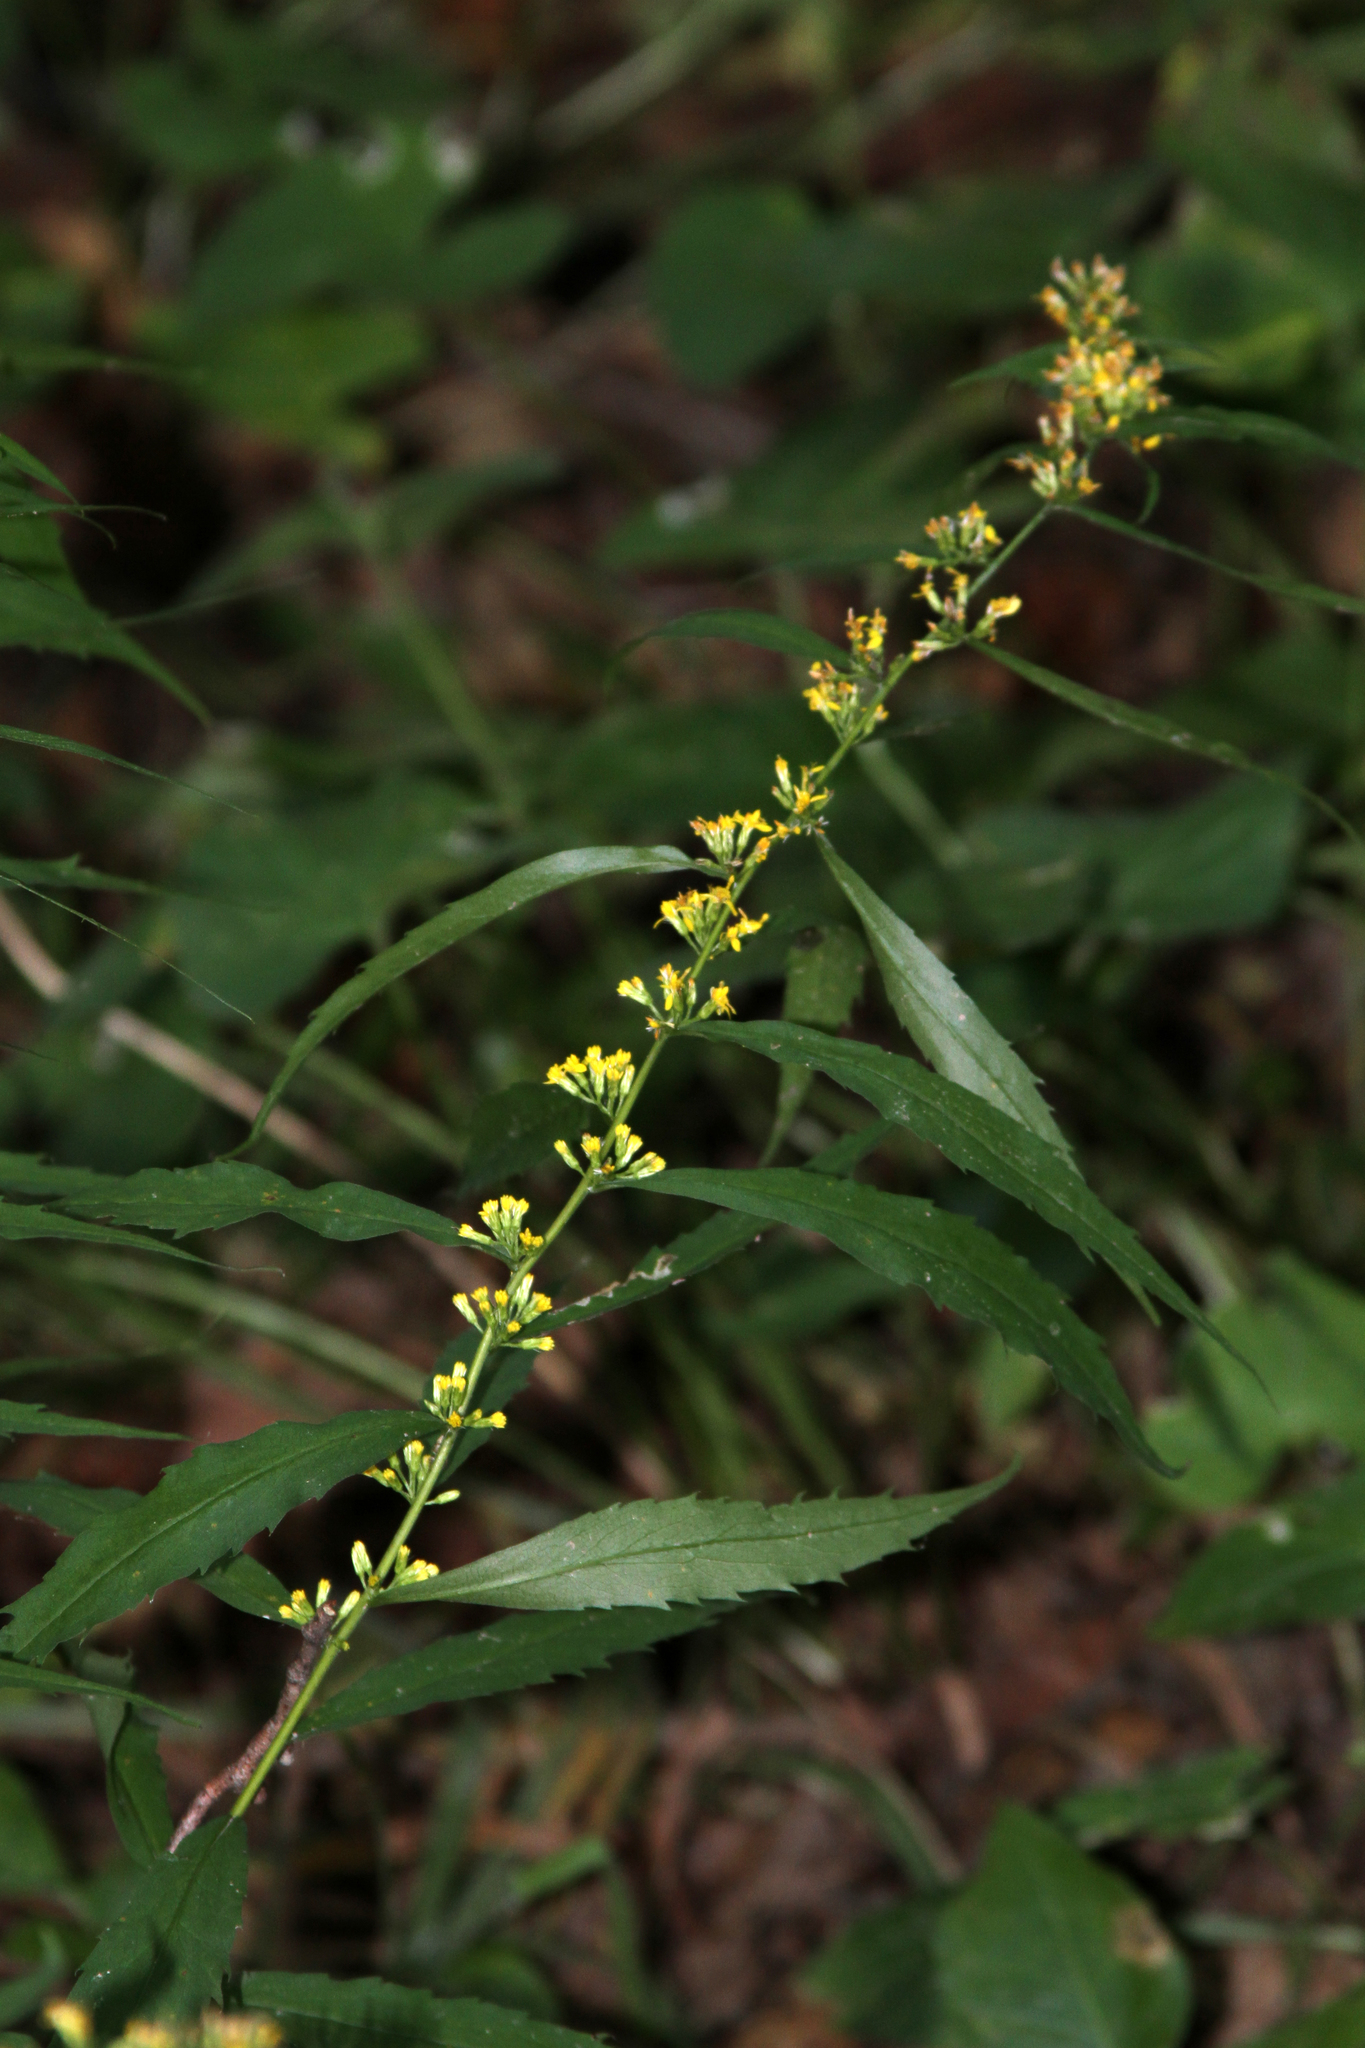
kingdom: Plantae
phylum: Tracheophyta
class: Magnoliopsida
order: Asterales
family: Asteraceae
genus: Solidago
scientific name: Solidago caesia
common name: Woodland goldenrod
